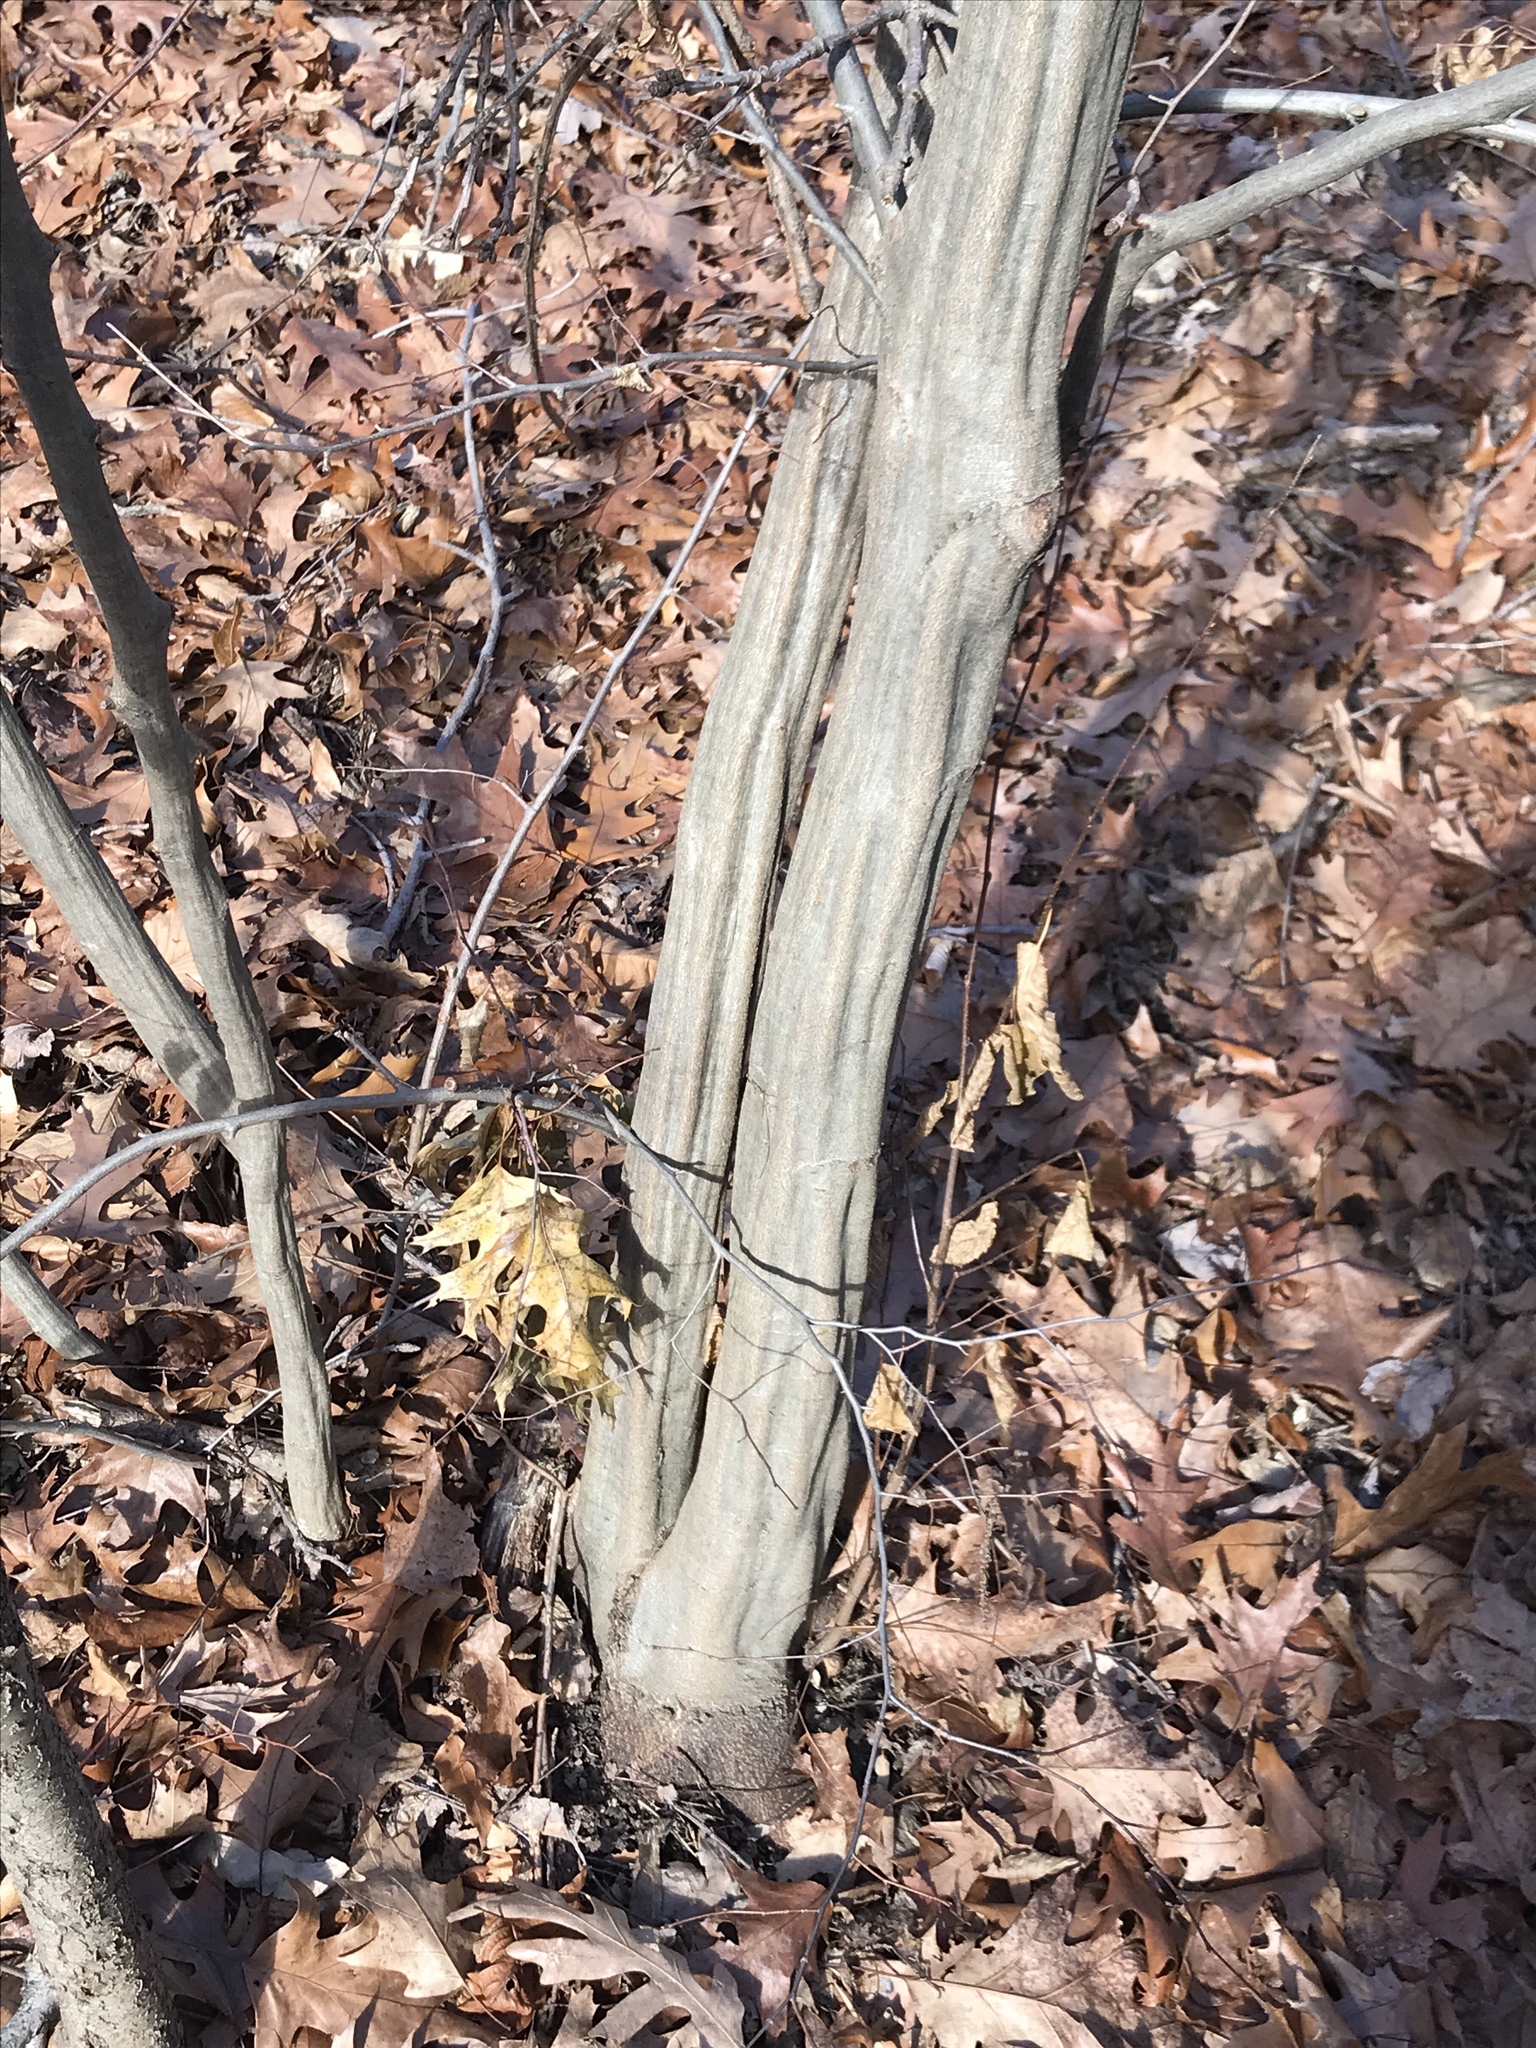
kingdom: Plantae
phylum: Tracheophyta
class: Magnoliopsida
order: Fagales
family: Betulaceae
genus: Carpinus
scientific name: Carpinus caroliniana
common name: American hornbeam
